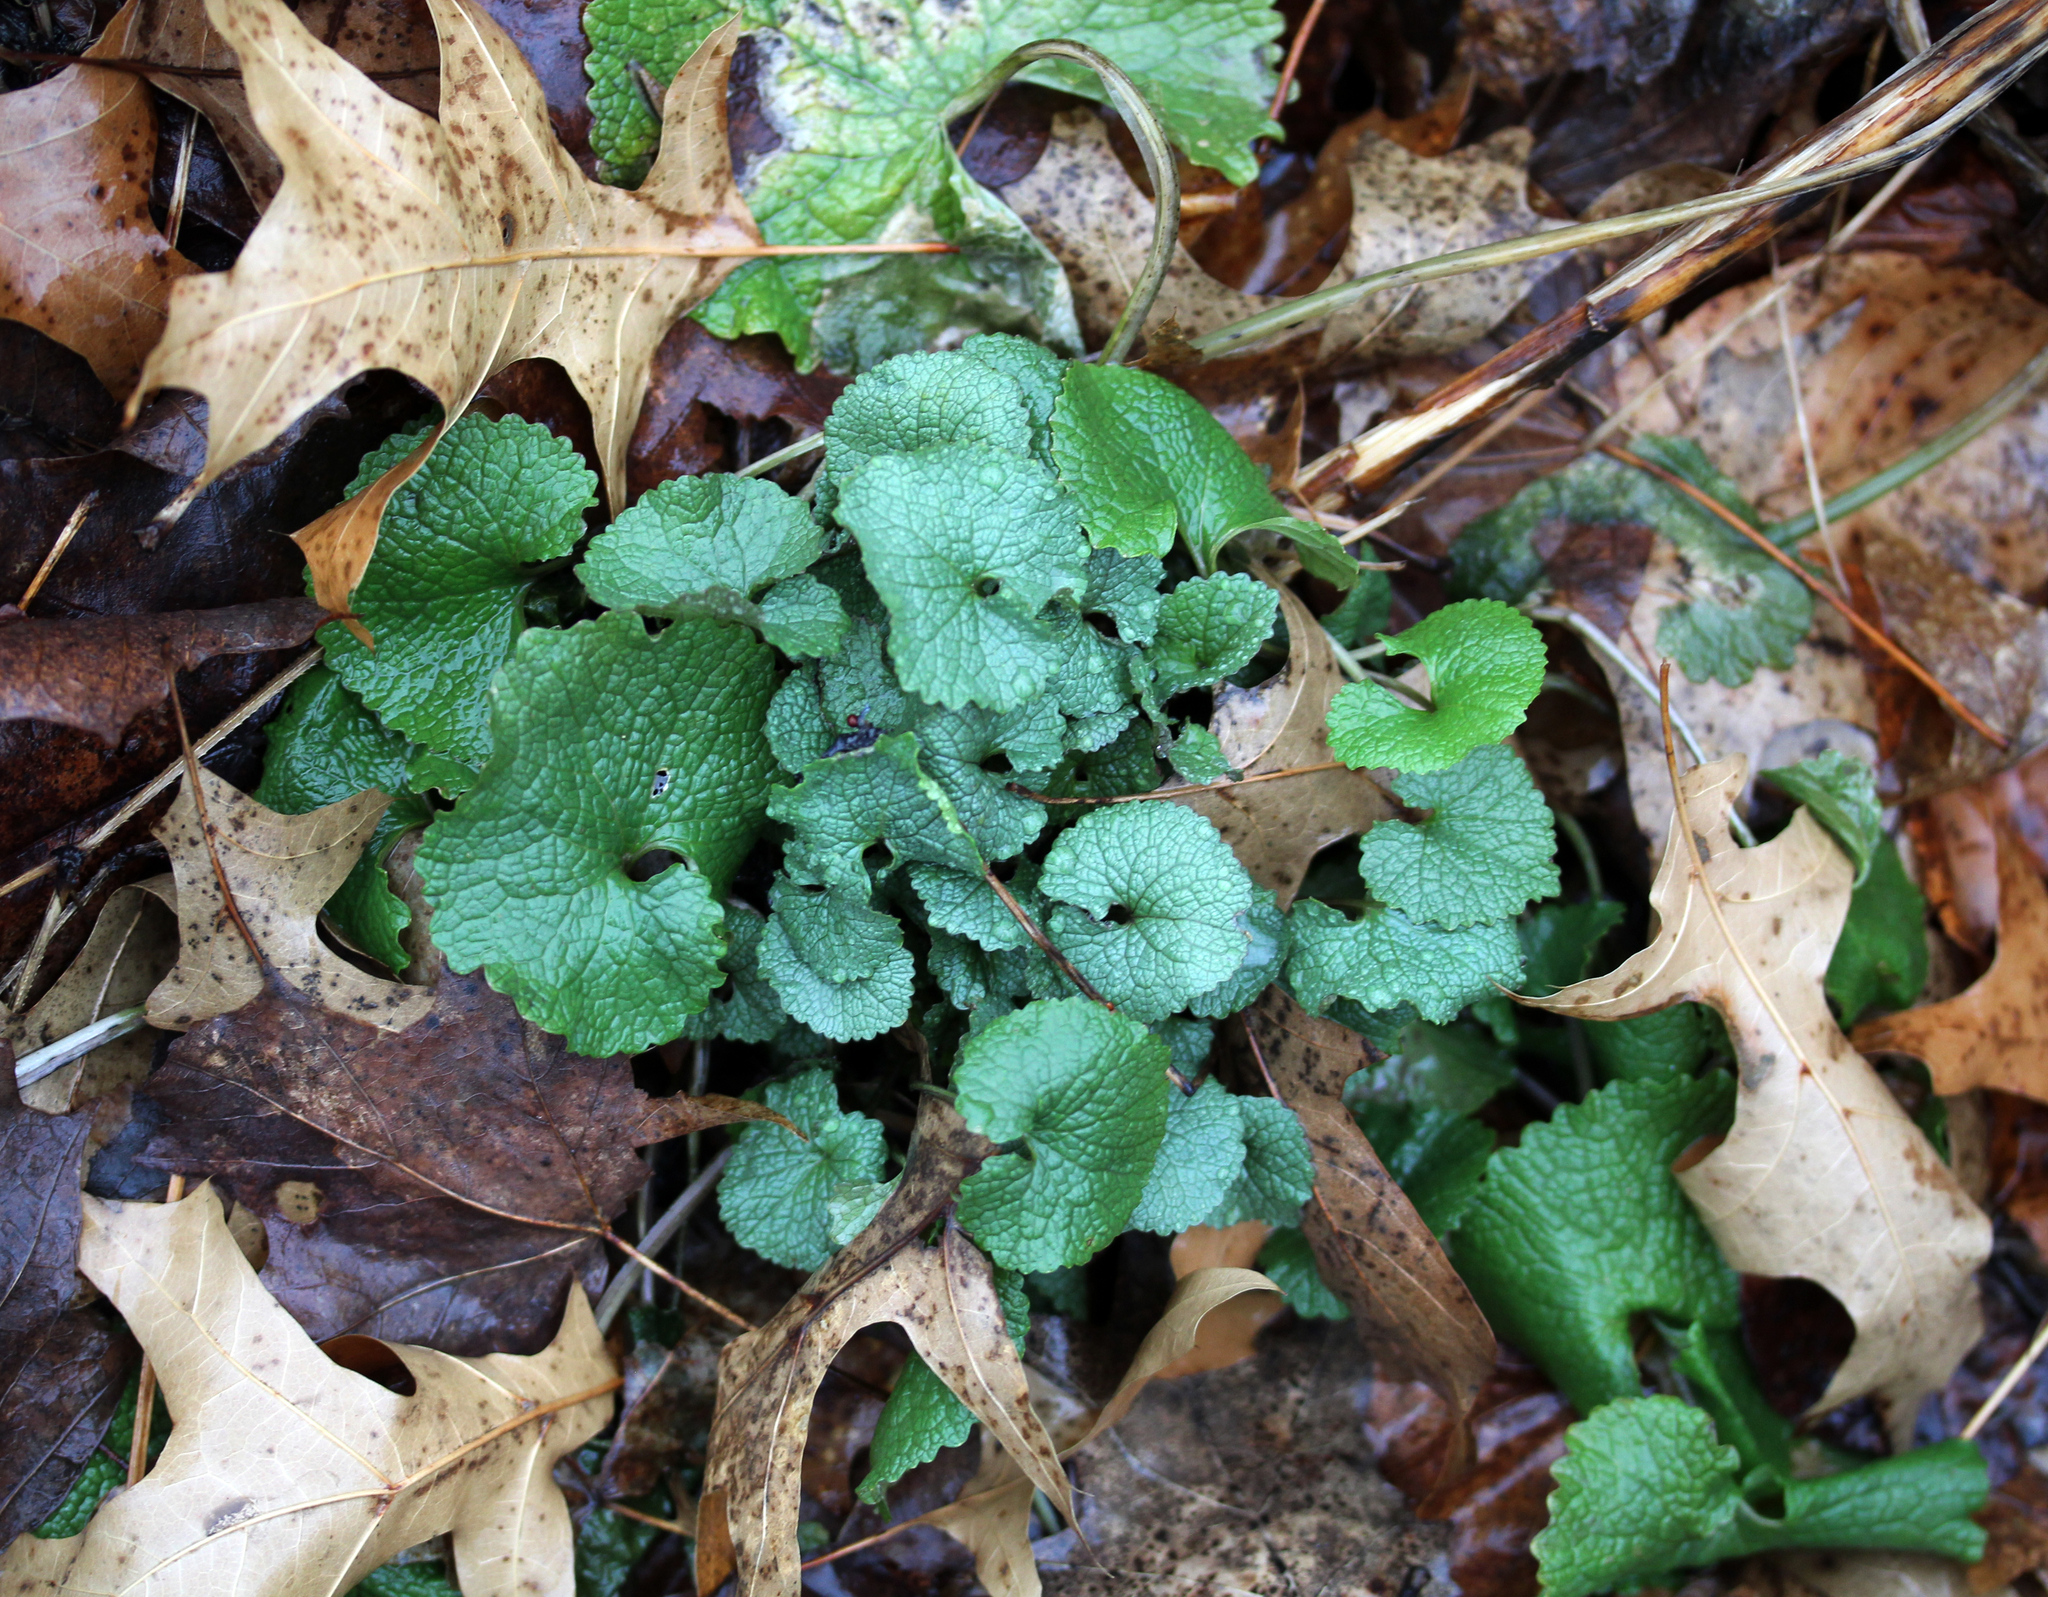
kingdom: Plantae
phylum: Tracheophyta
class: Magnoliopsida
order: Brassicales
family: Brassicaceae
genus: Alliaria
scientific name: Alliaria petiolata
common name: Garlic mustard
